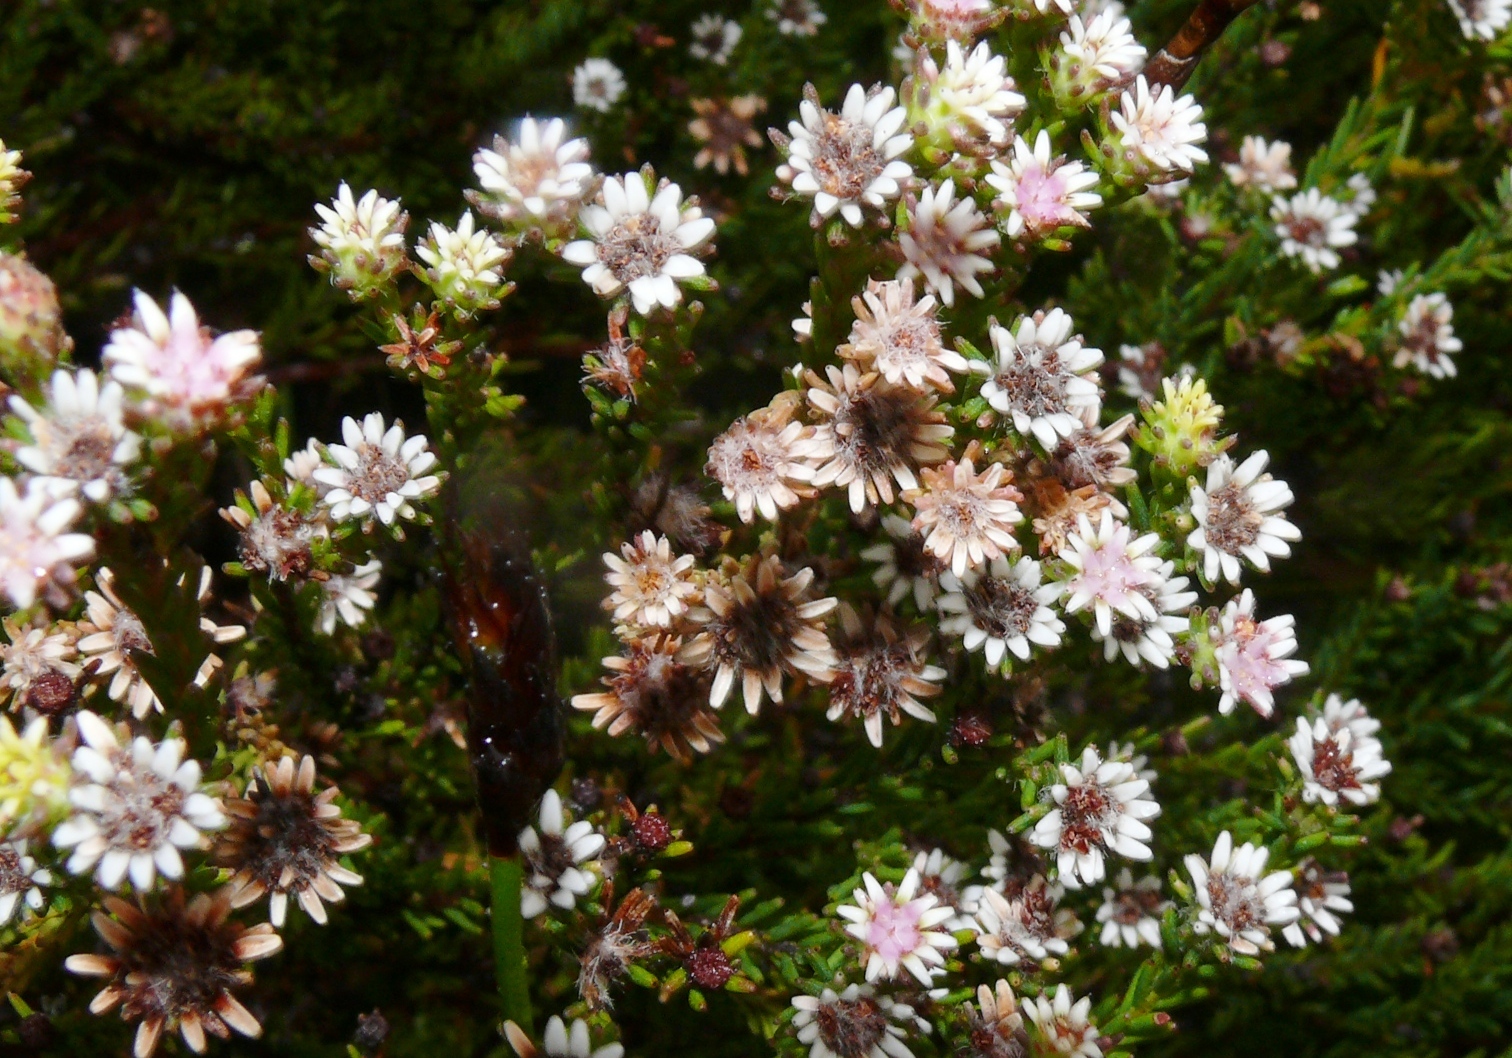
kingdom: Plantae
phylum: Tracheophyta
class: Magnoliopsida
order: Bruniales
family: Bruniaceae
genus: Staavia
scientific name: Staavia radiata
